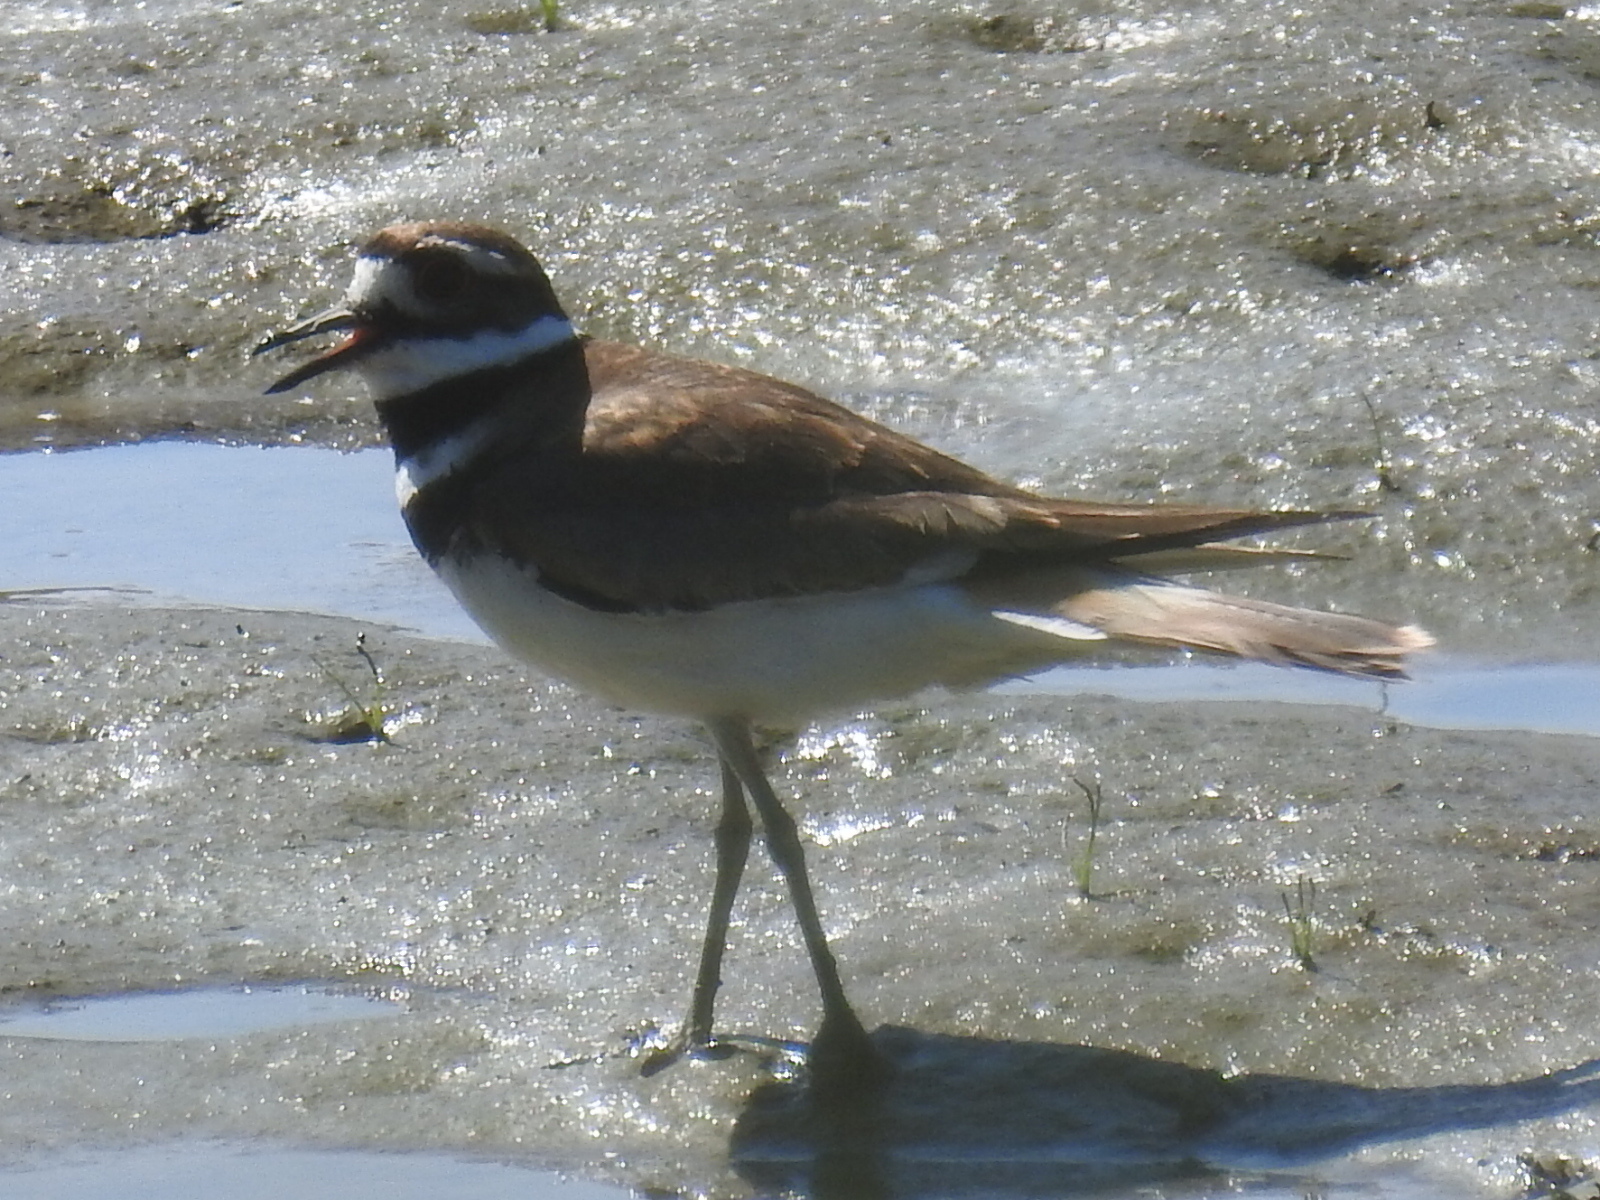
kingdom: Animalia
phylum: Chordata
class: Aves
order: Charadriiformes
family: Charadriidae
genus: Charadrius
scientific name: Charadrius vociferus
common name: Killdeer
